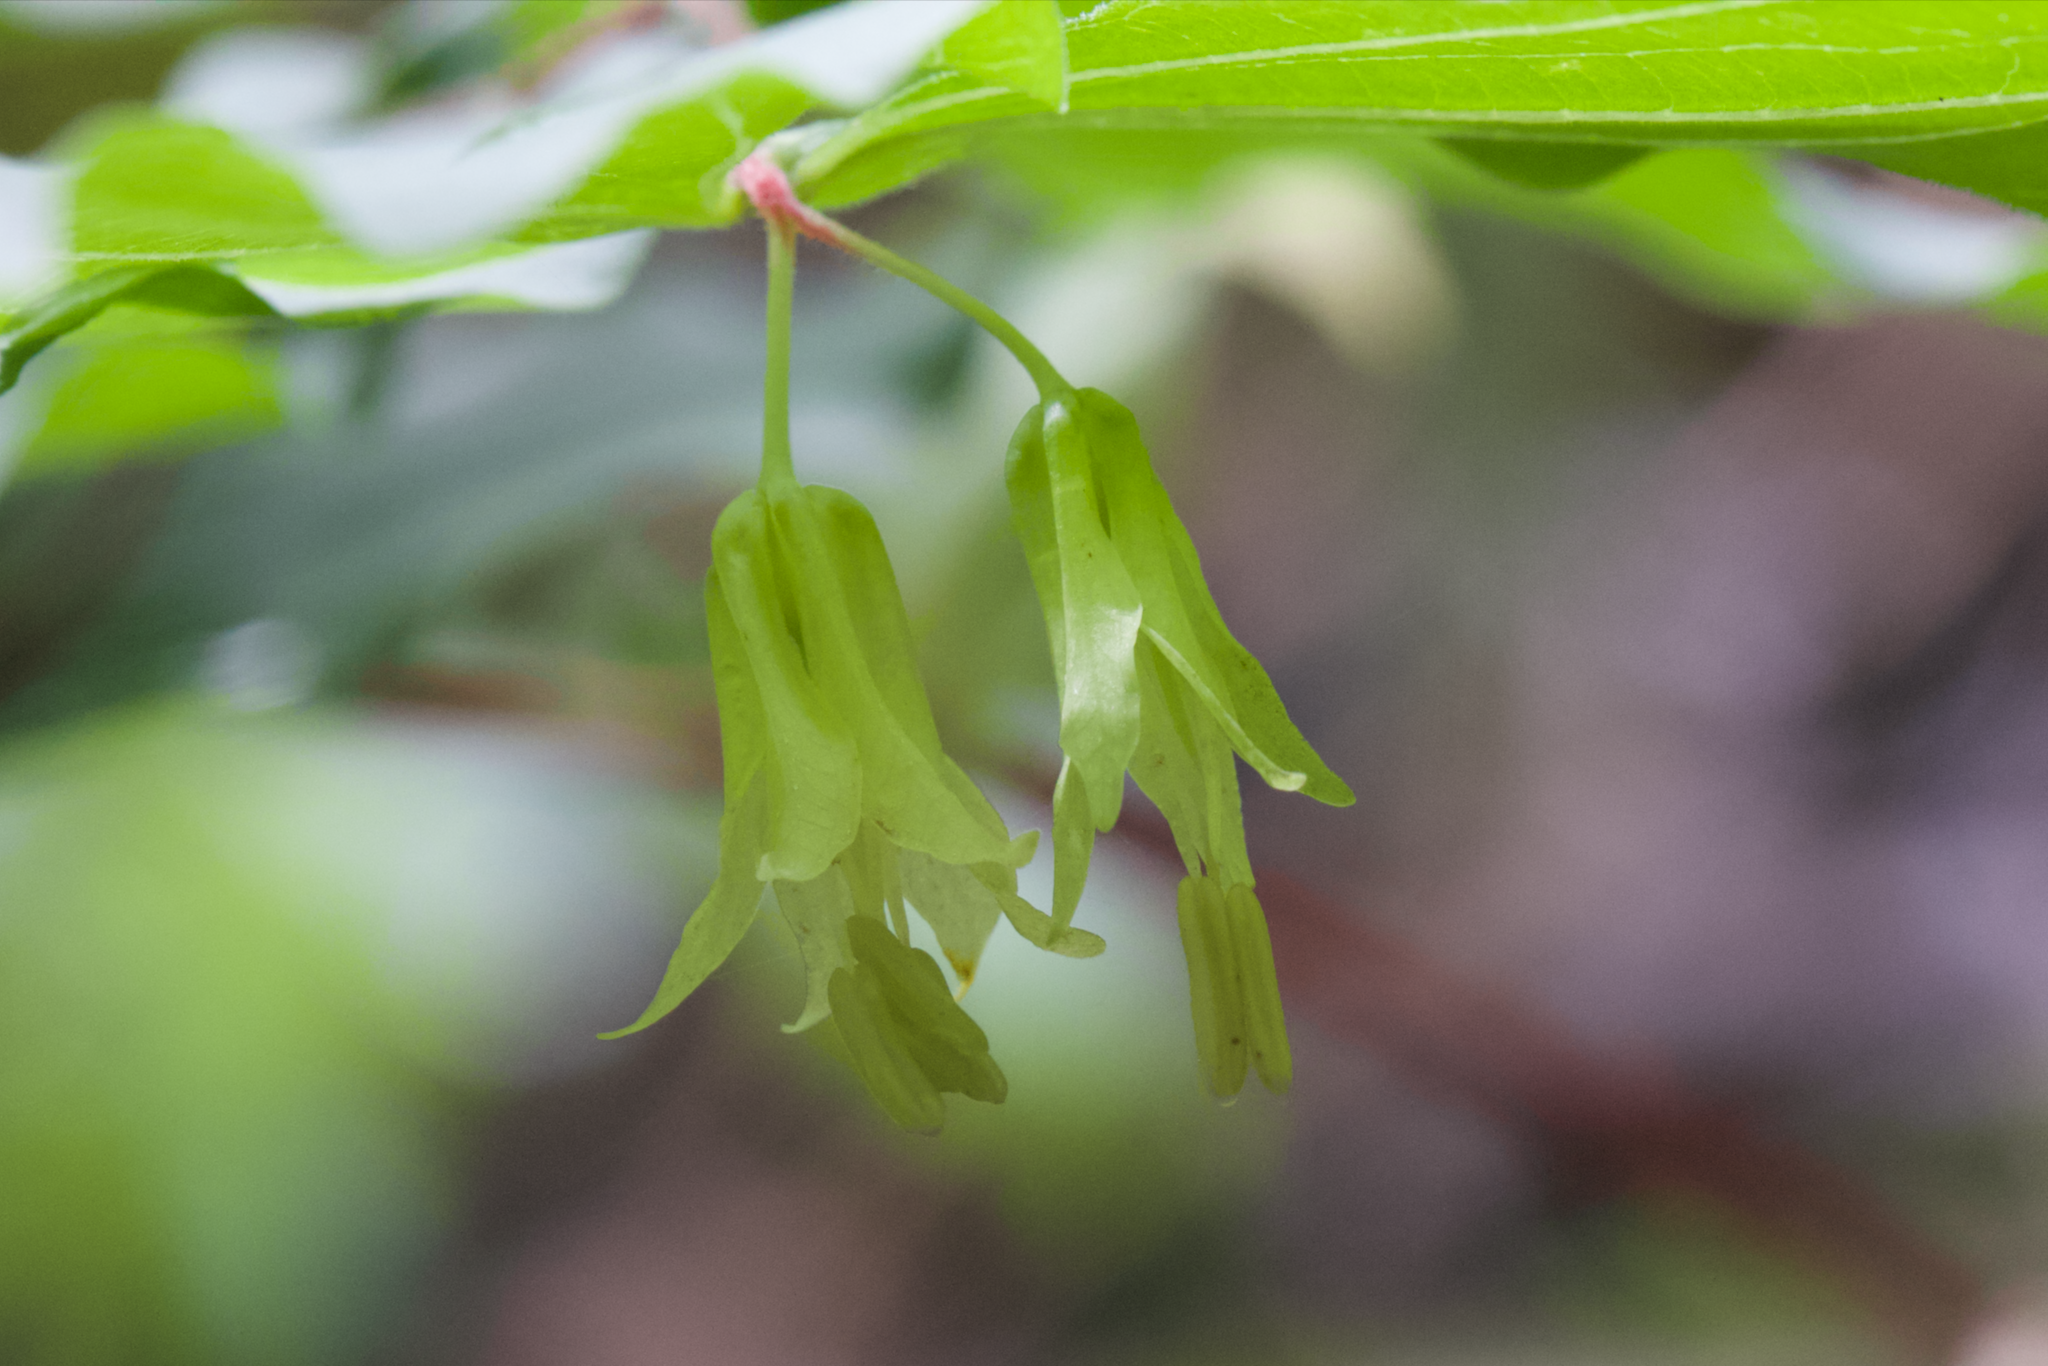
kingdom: Plantae
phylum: Tracheophyta
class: Liliopsida
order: Liliales
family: Liliaceae
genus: Prosartes
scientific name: Prosartes hookeri
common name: Fairy-bells
